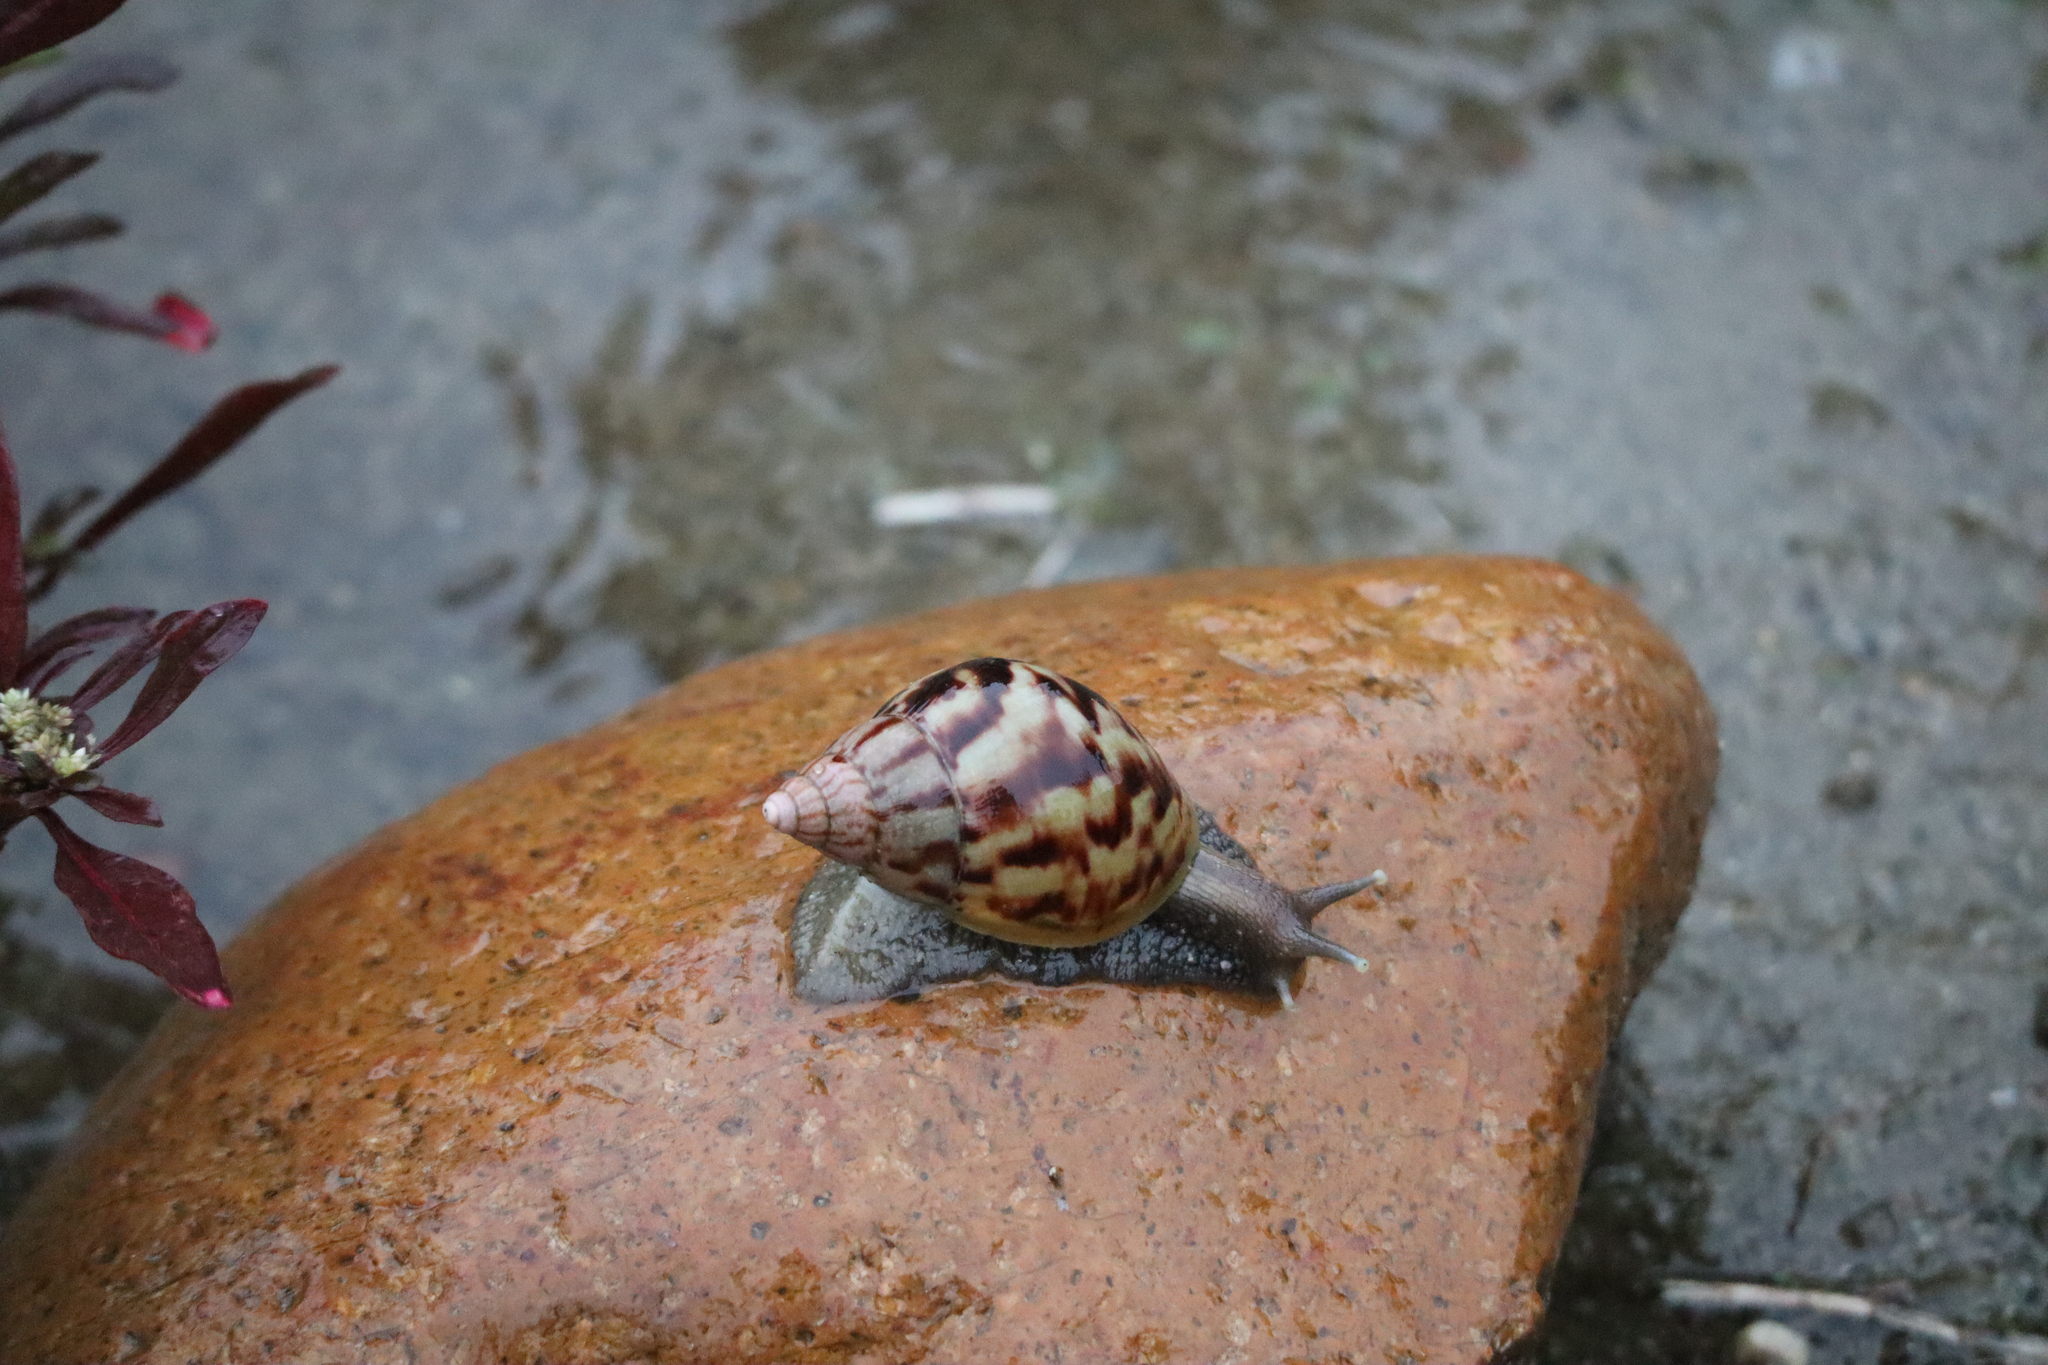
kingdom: Animalia
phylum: Mollusca
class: Gastropoda
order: Stylommatophora
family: Achatinidae
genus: Lissachatina
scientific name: Lissachatina fulica
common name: Giant african snail
